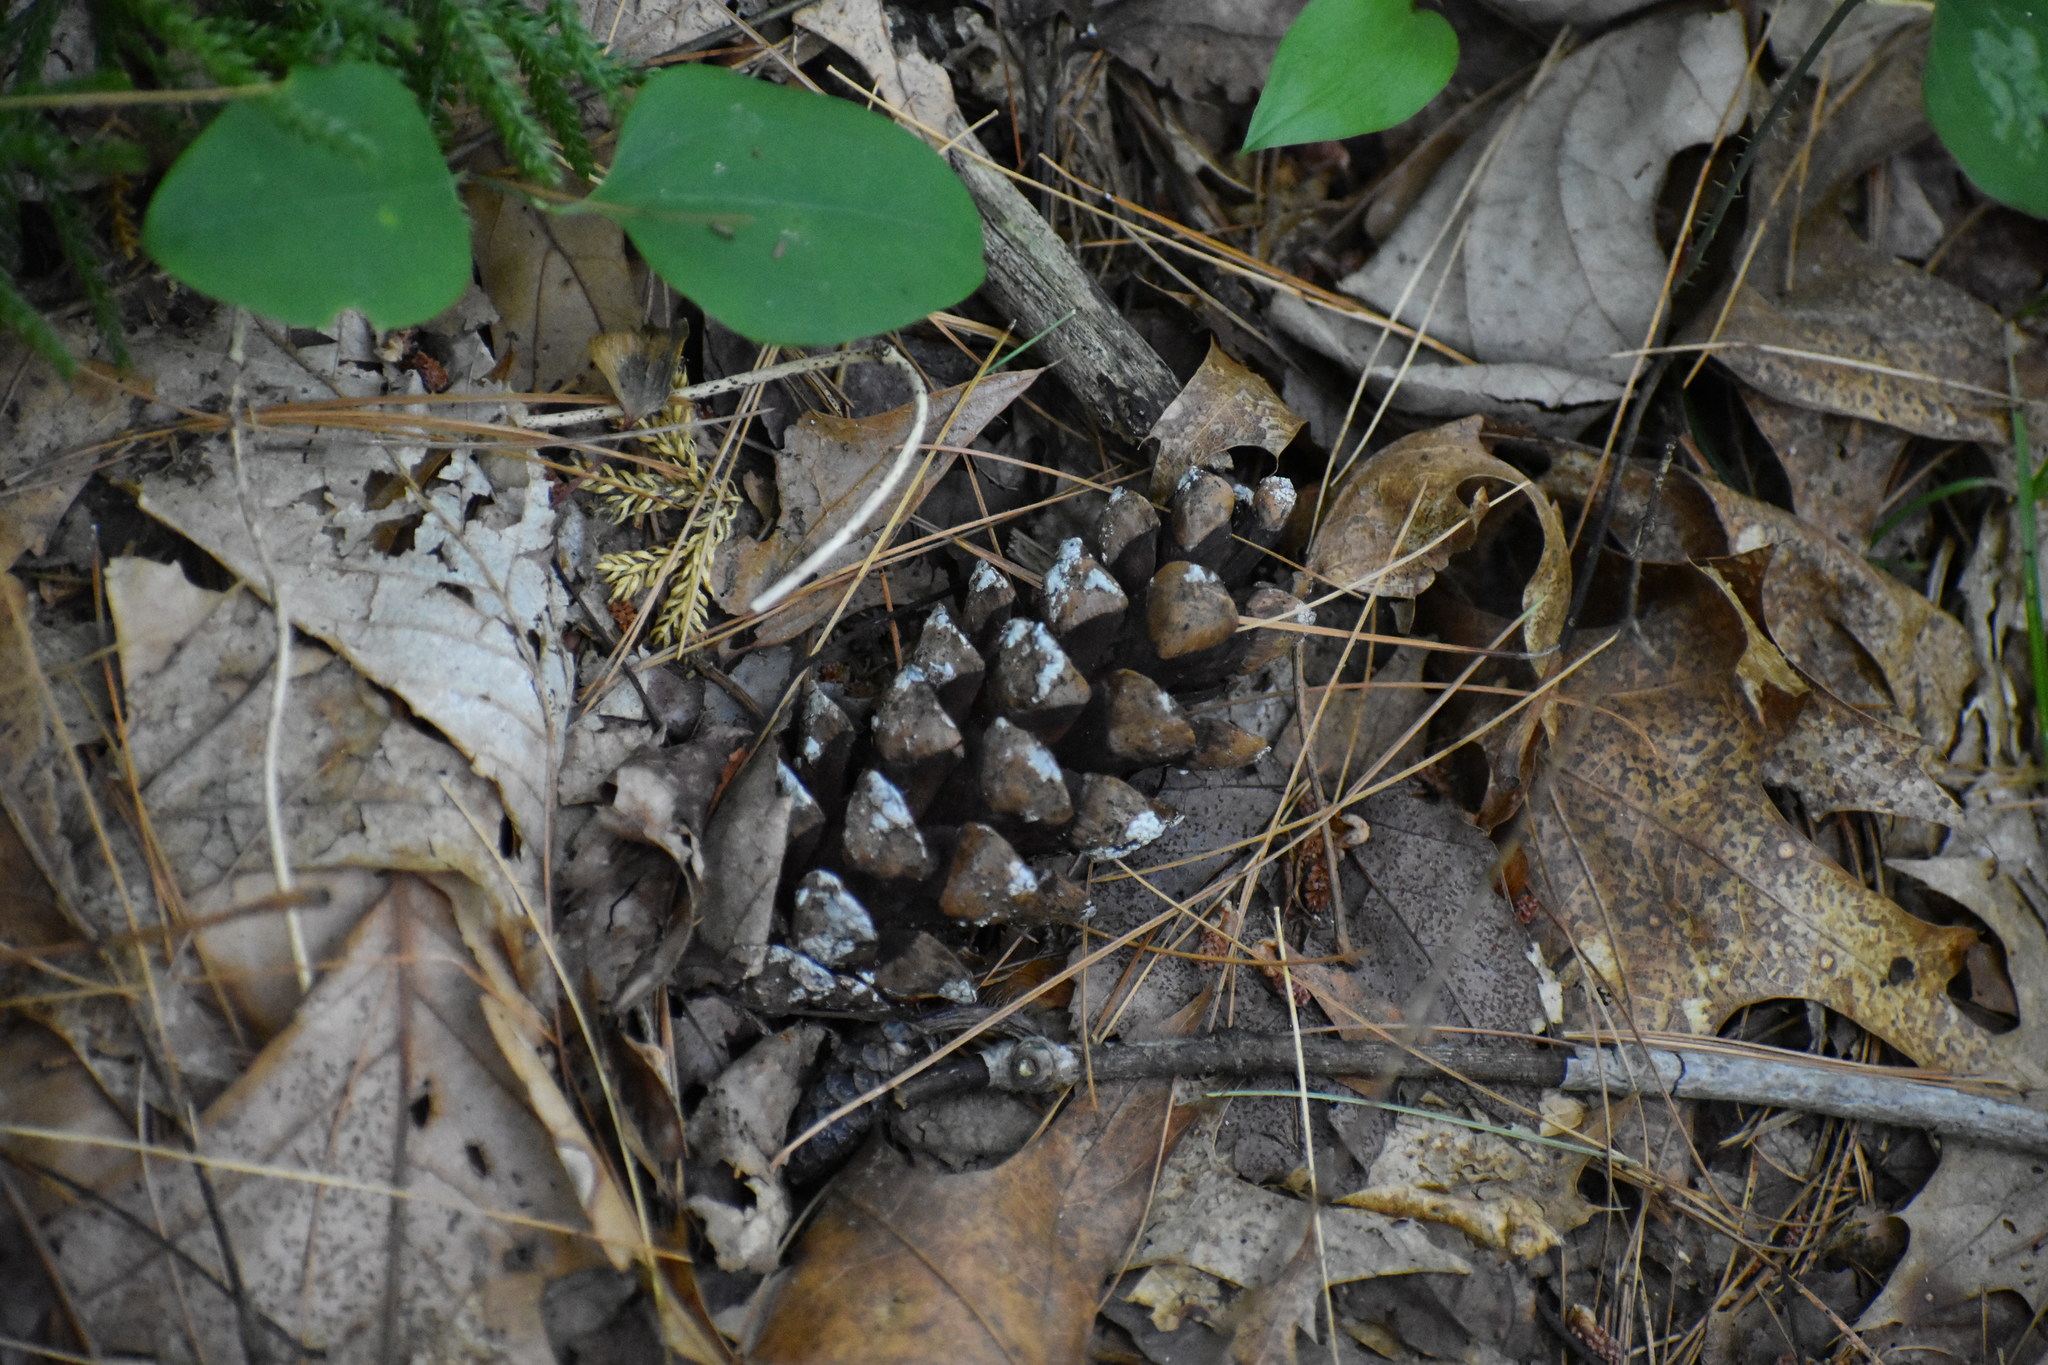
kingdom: Plantae
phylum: Tracheophyta
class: Pinopsida
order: Pinales
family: Pinaceae
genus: Pinus
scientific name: Pinus strobus
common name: Weymouth pine
